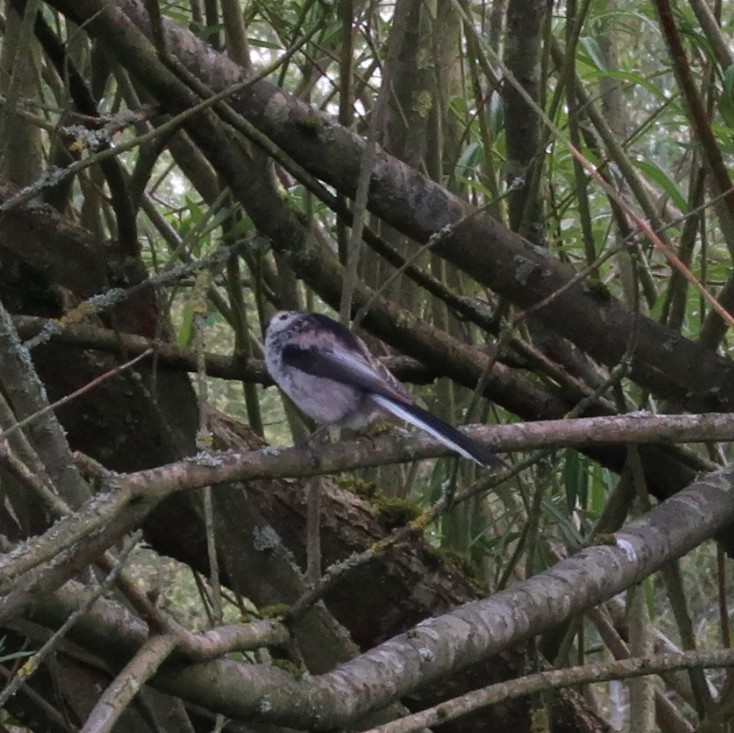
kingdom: Animalia
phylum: Chordata
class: Aves
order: Passeriformes
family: Aegithalidae
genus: Aegithalos
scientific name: Aegithalos caudatus
